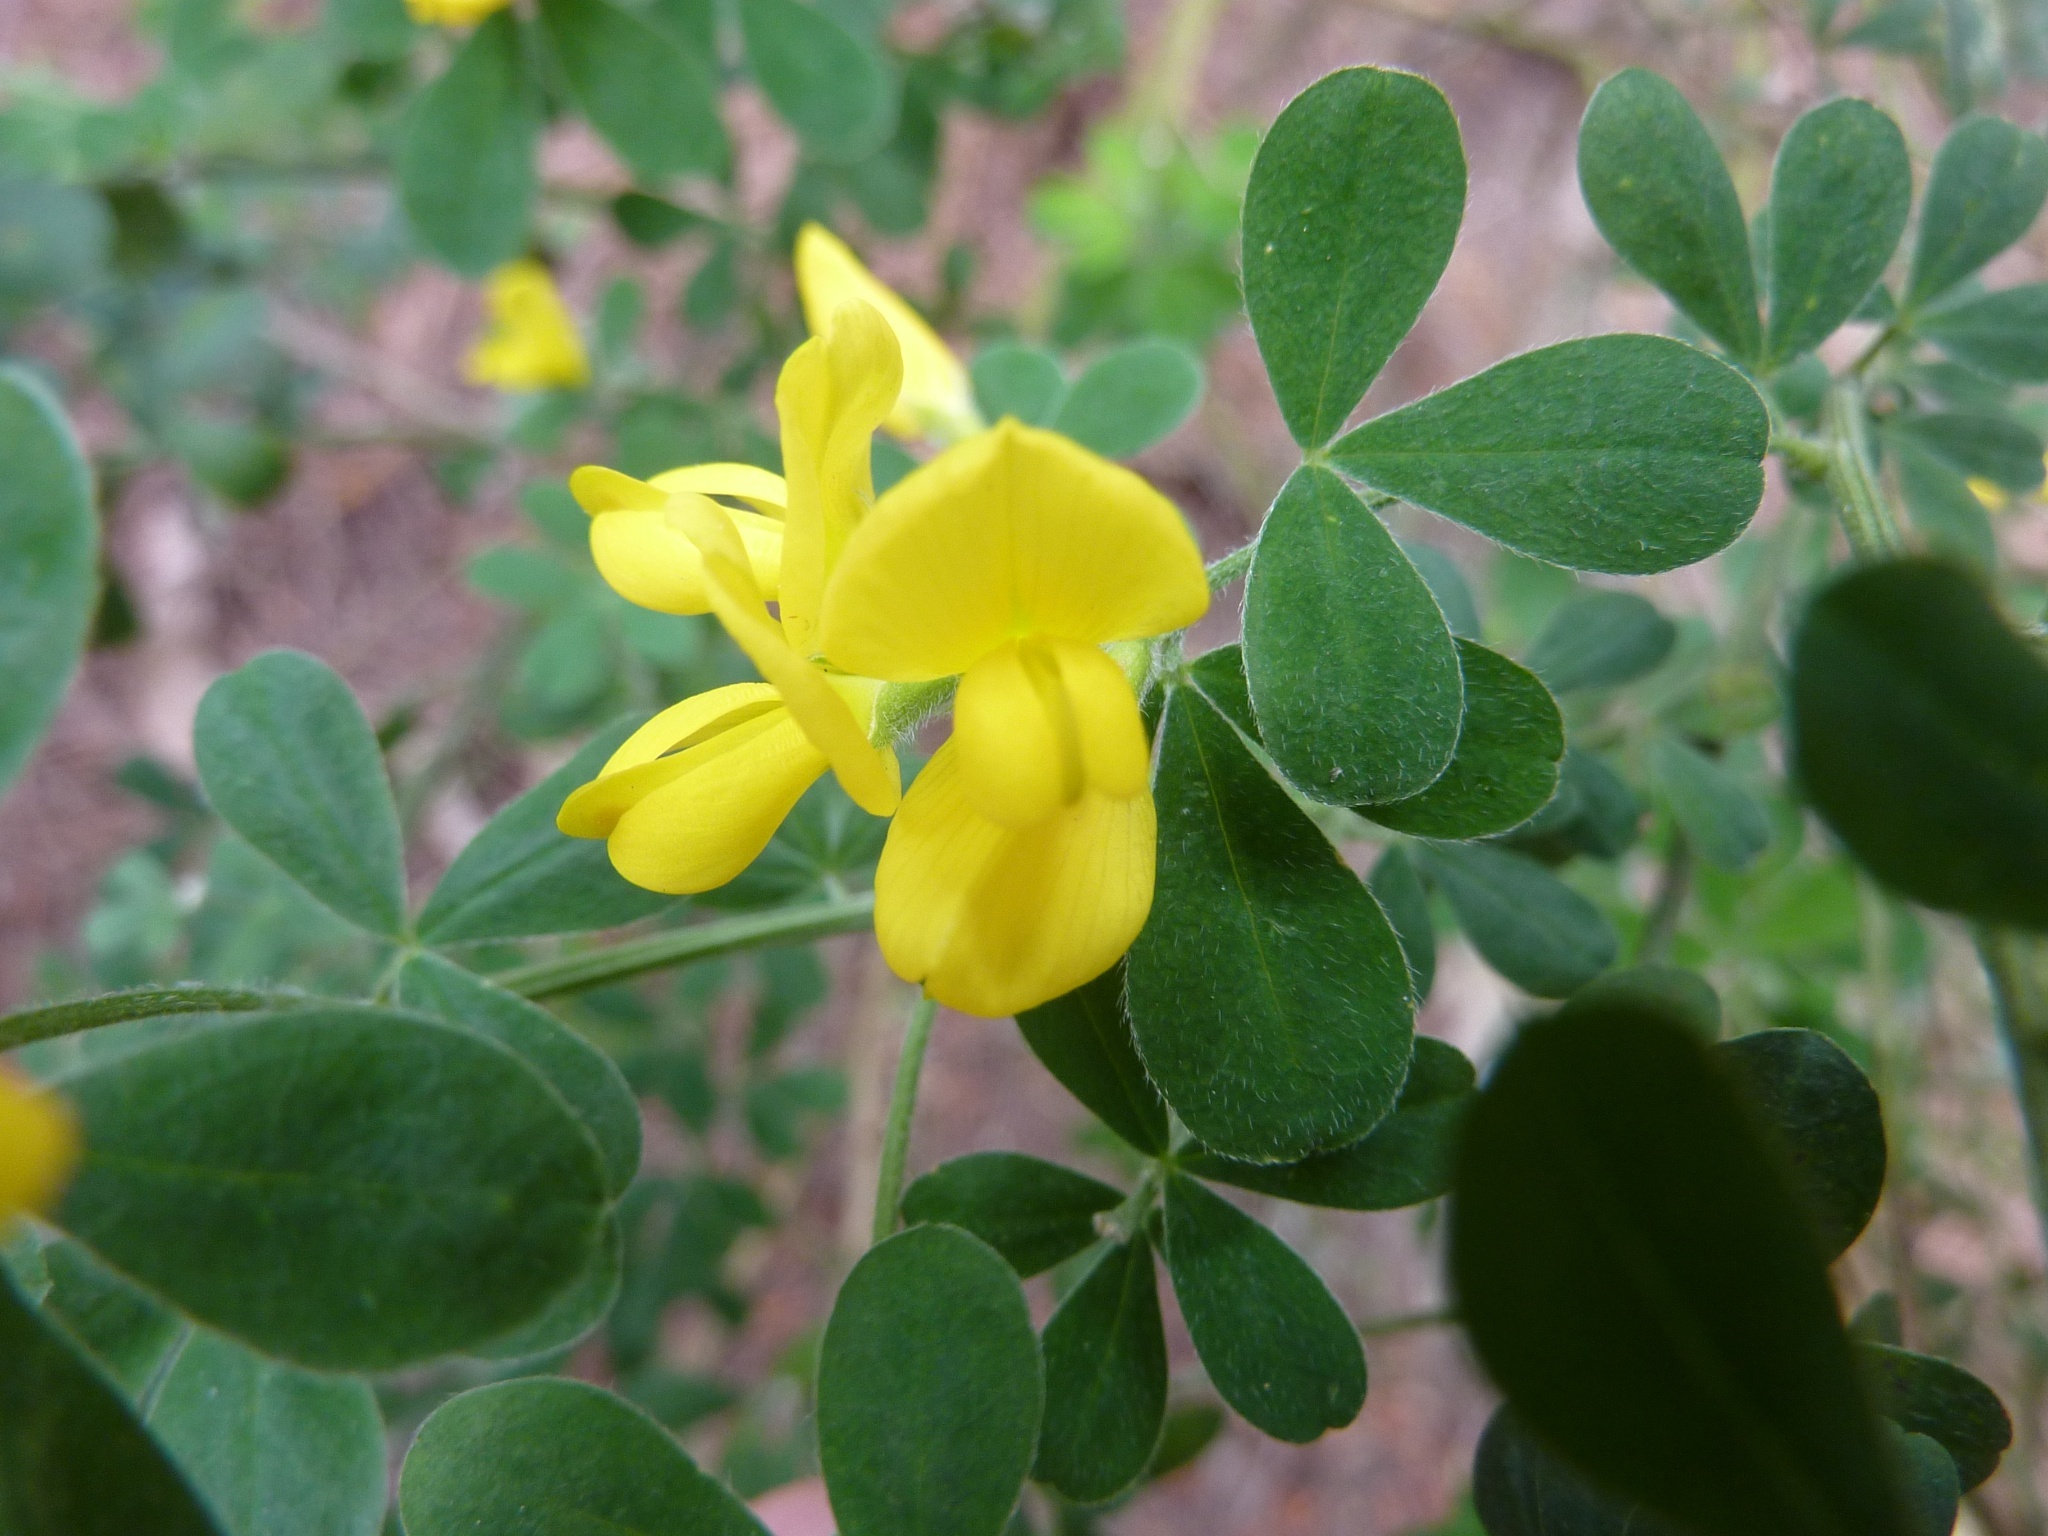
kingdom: Plantae
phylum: Tracheophyta
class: Magnoliopsida
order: Fabales
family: Fabaceae
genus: Genista
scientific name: Genista monspessulana
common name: Montpellier broom
